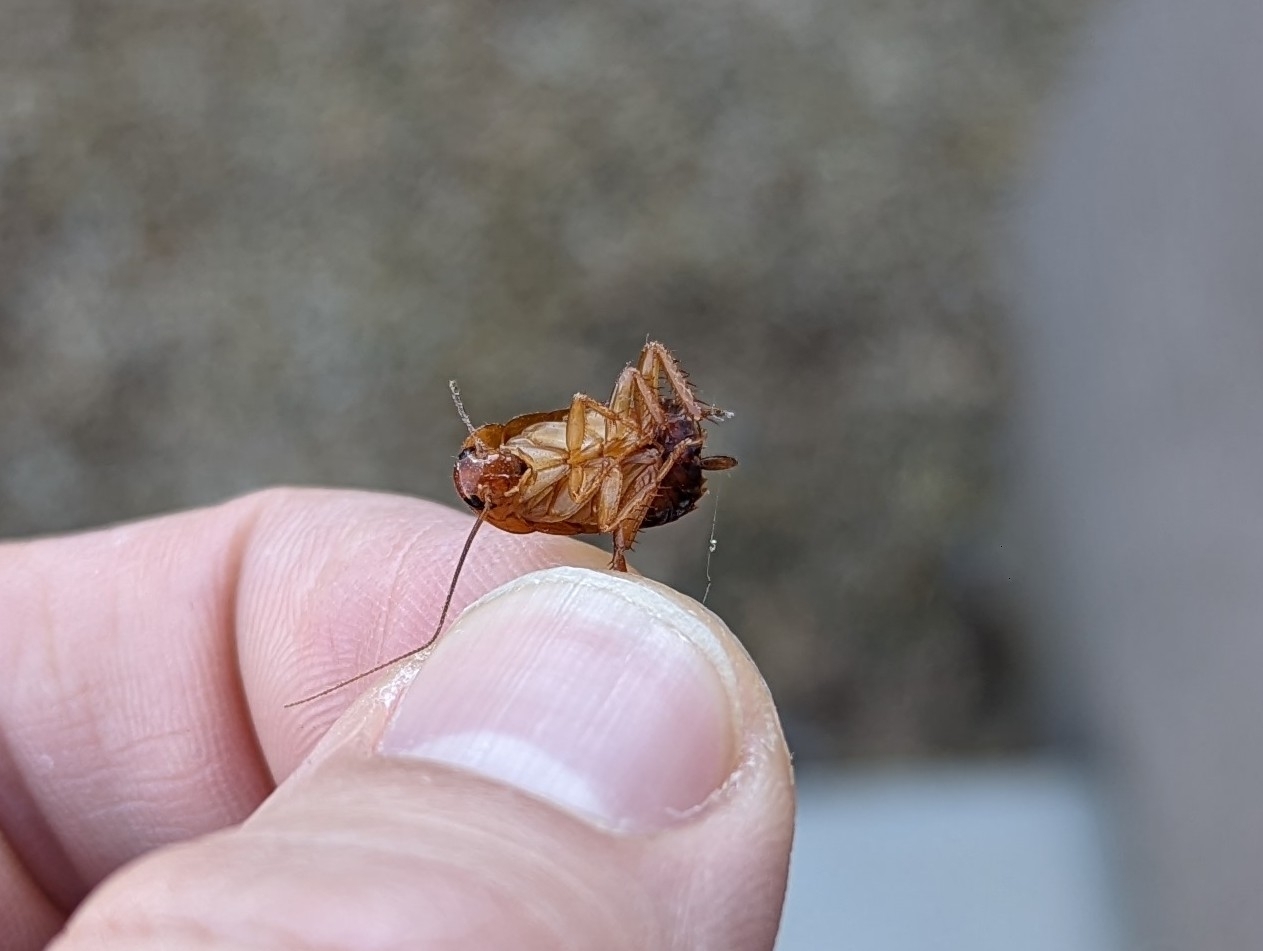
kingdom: Animalia
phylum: Arthropoda
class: Insecta
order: Blattodea
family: Blattidae
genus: Periplaneta
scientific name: Periplaneta lateralis
